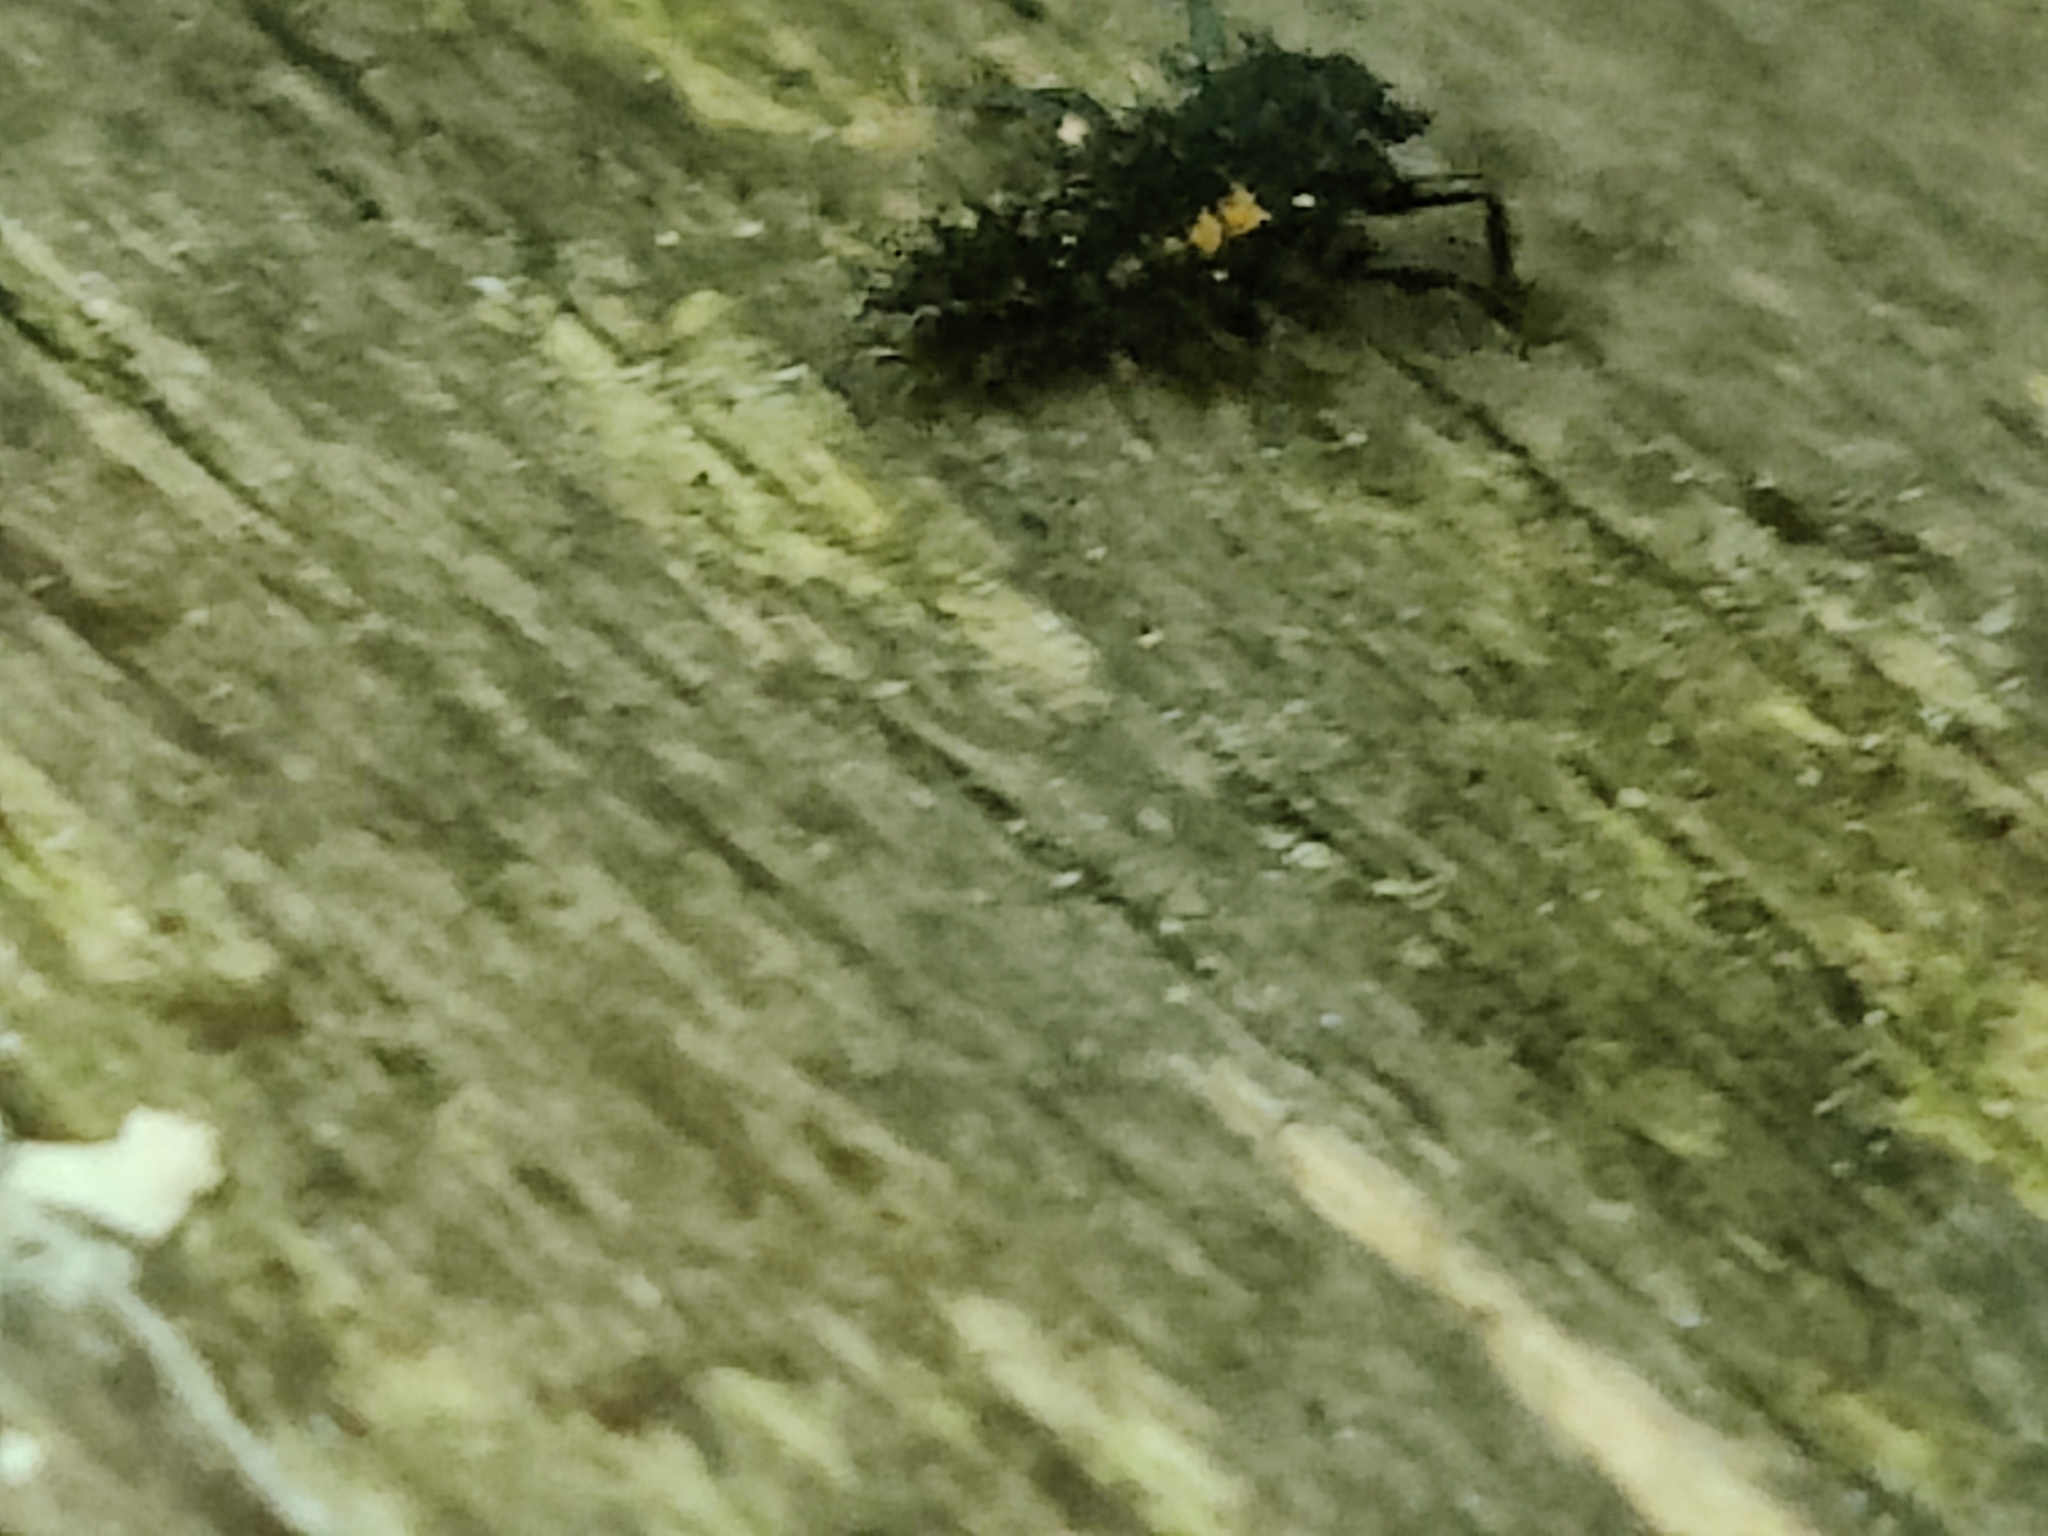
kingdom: Animalia
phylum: Arthropoda
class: Insecta
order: Coleoptera
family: Coccinellidae
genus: Harmonia
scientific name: Harmonia axyridis
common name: Harlequin ladybird
